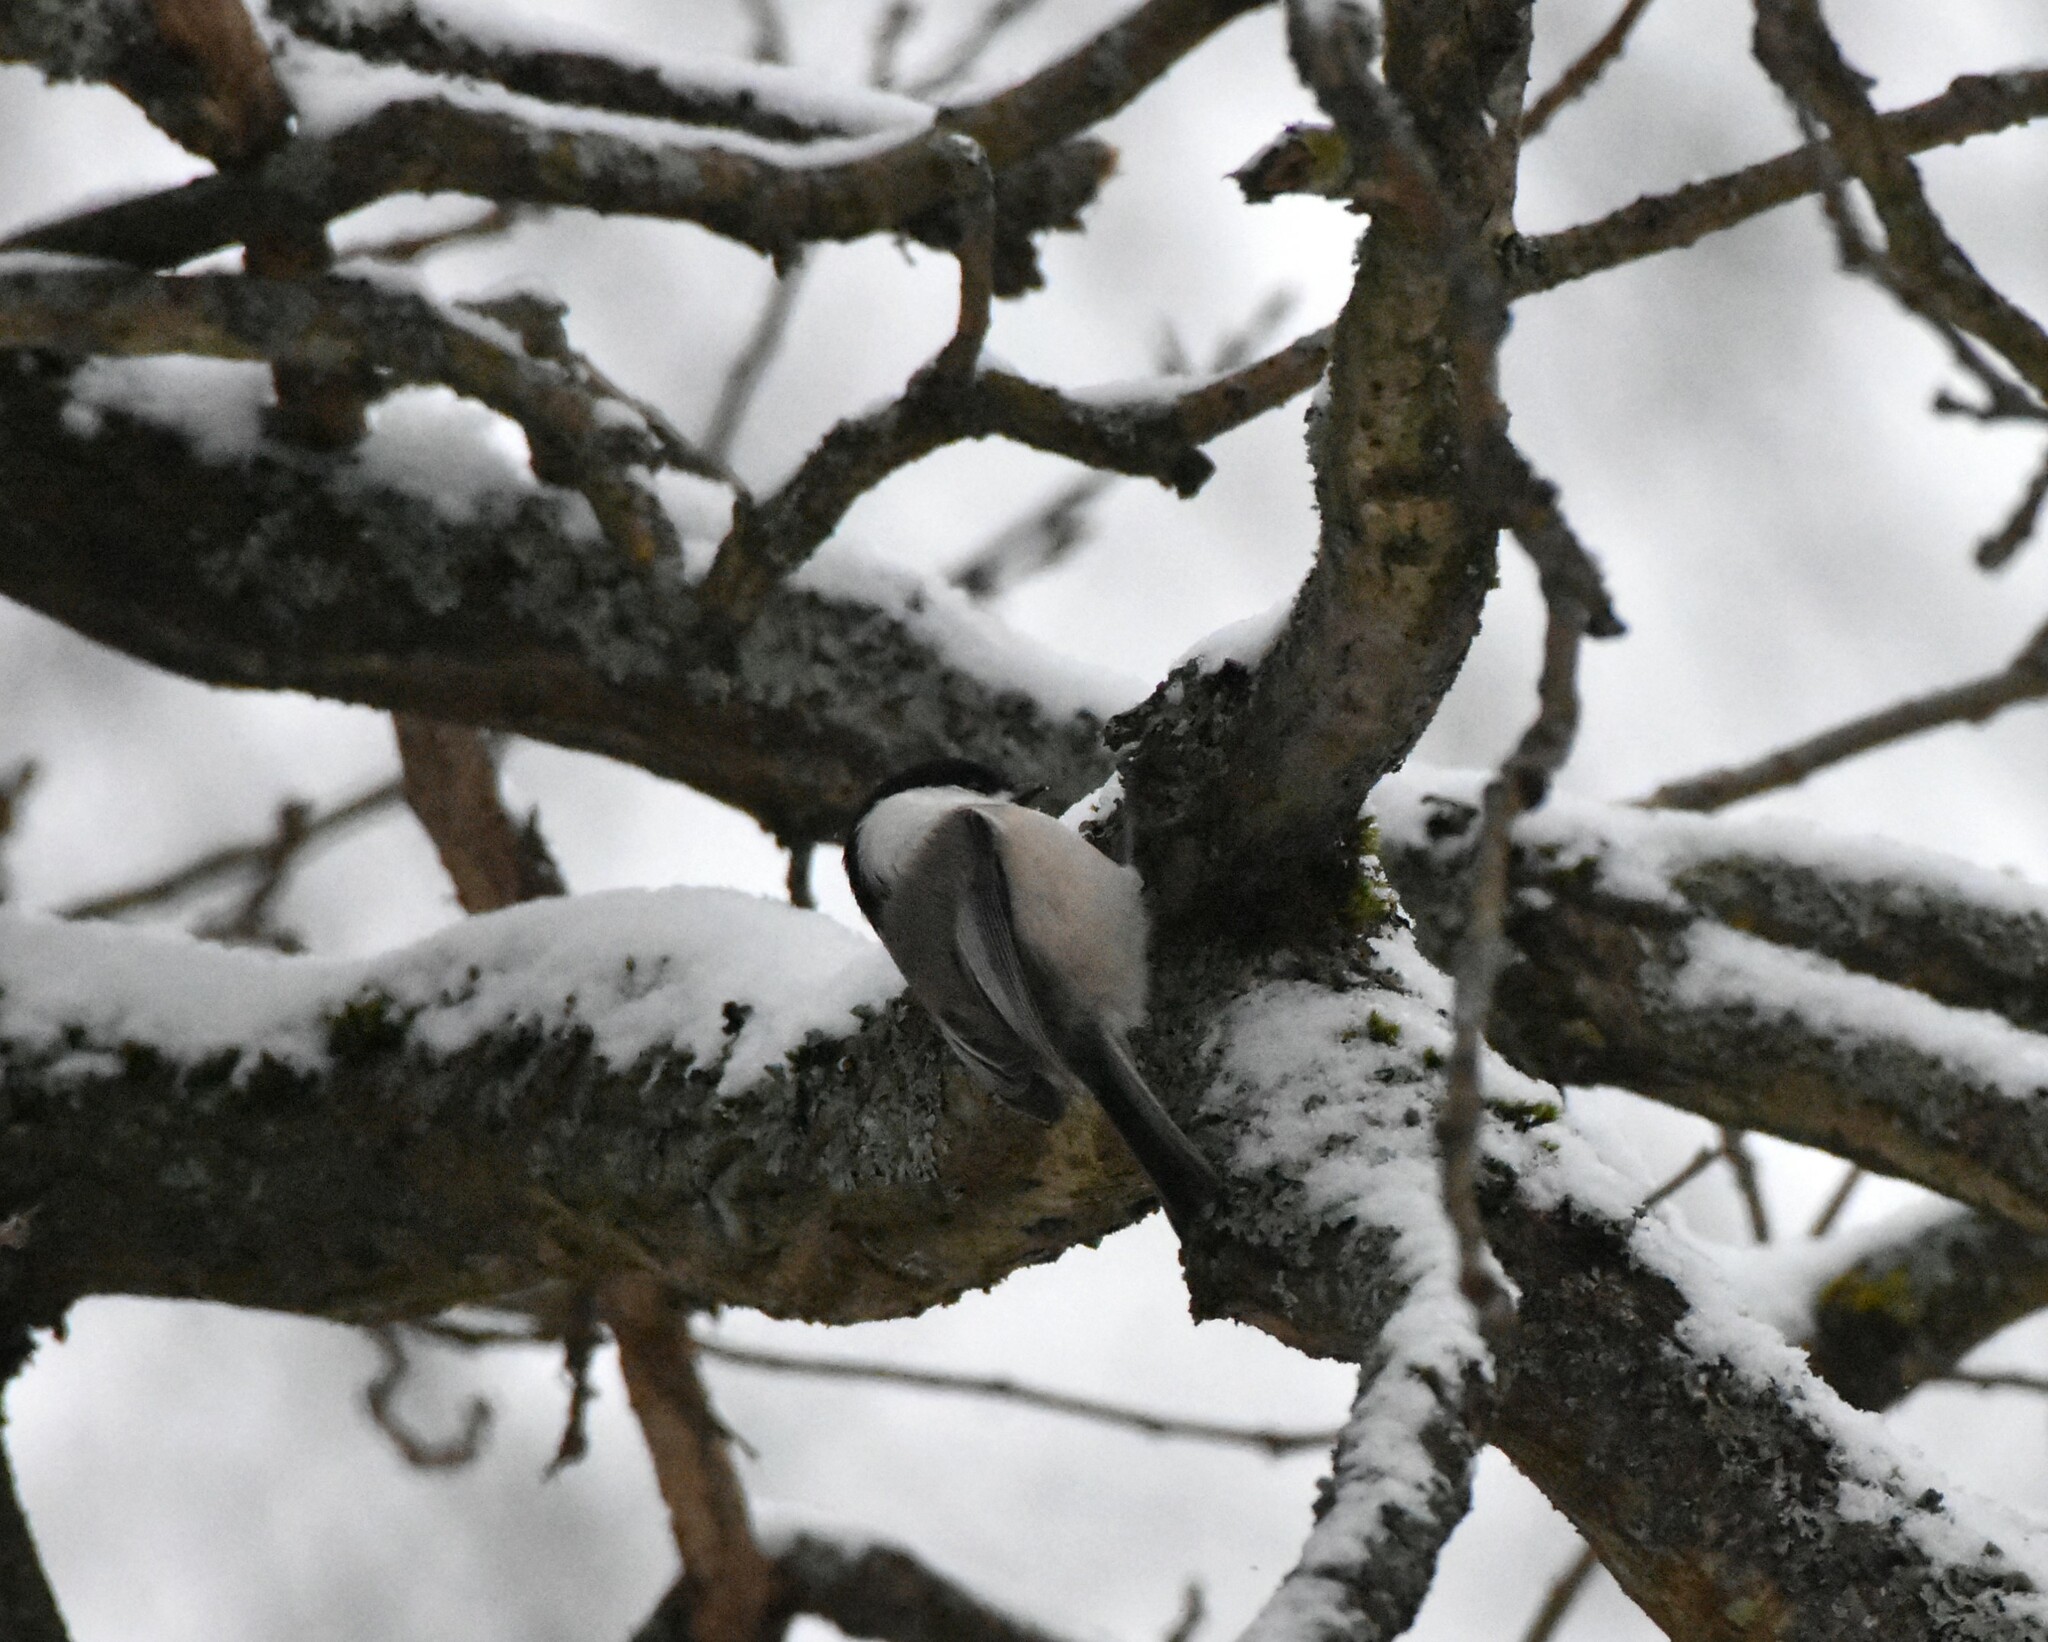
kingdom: Animalia
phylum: Chordata
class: Aves
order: Passeriformes
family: Paridae
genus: Poecile
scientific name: Poecile montanus
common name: Willow tit
